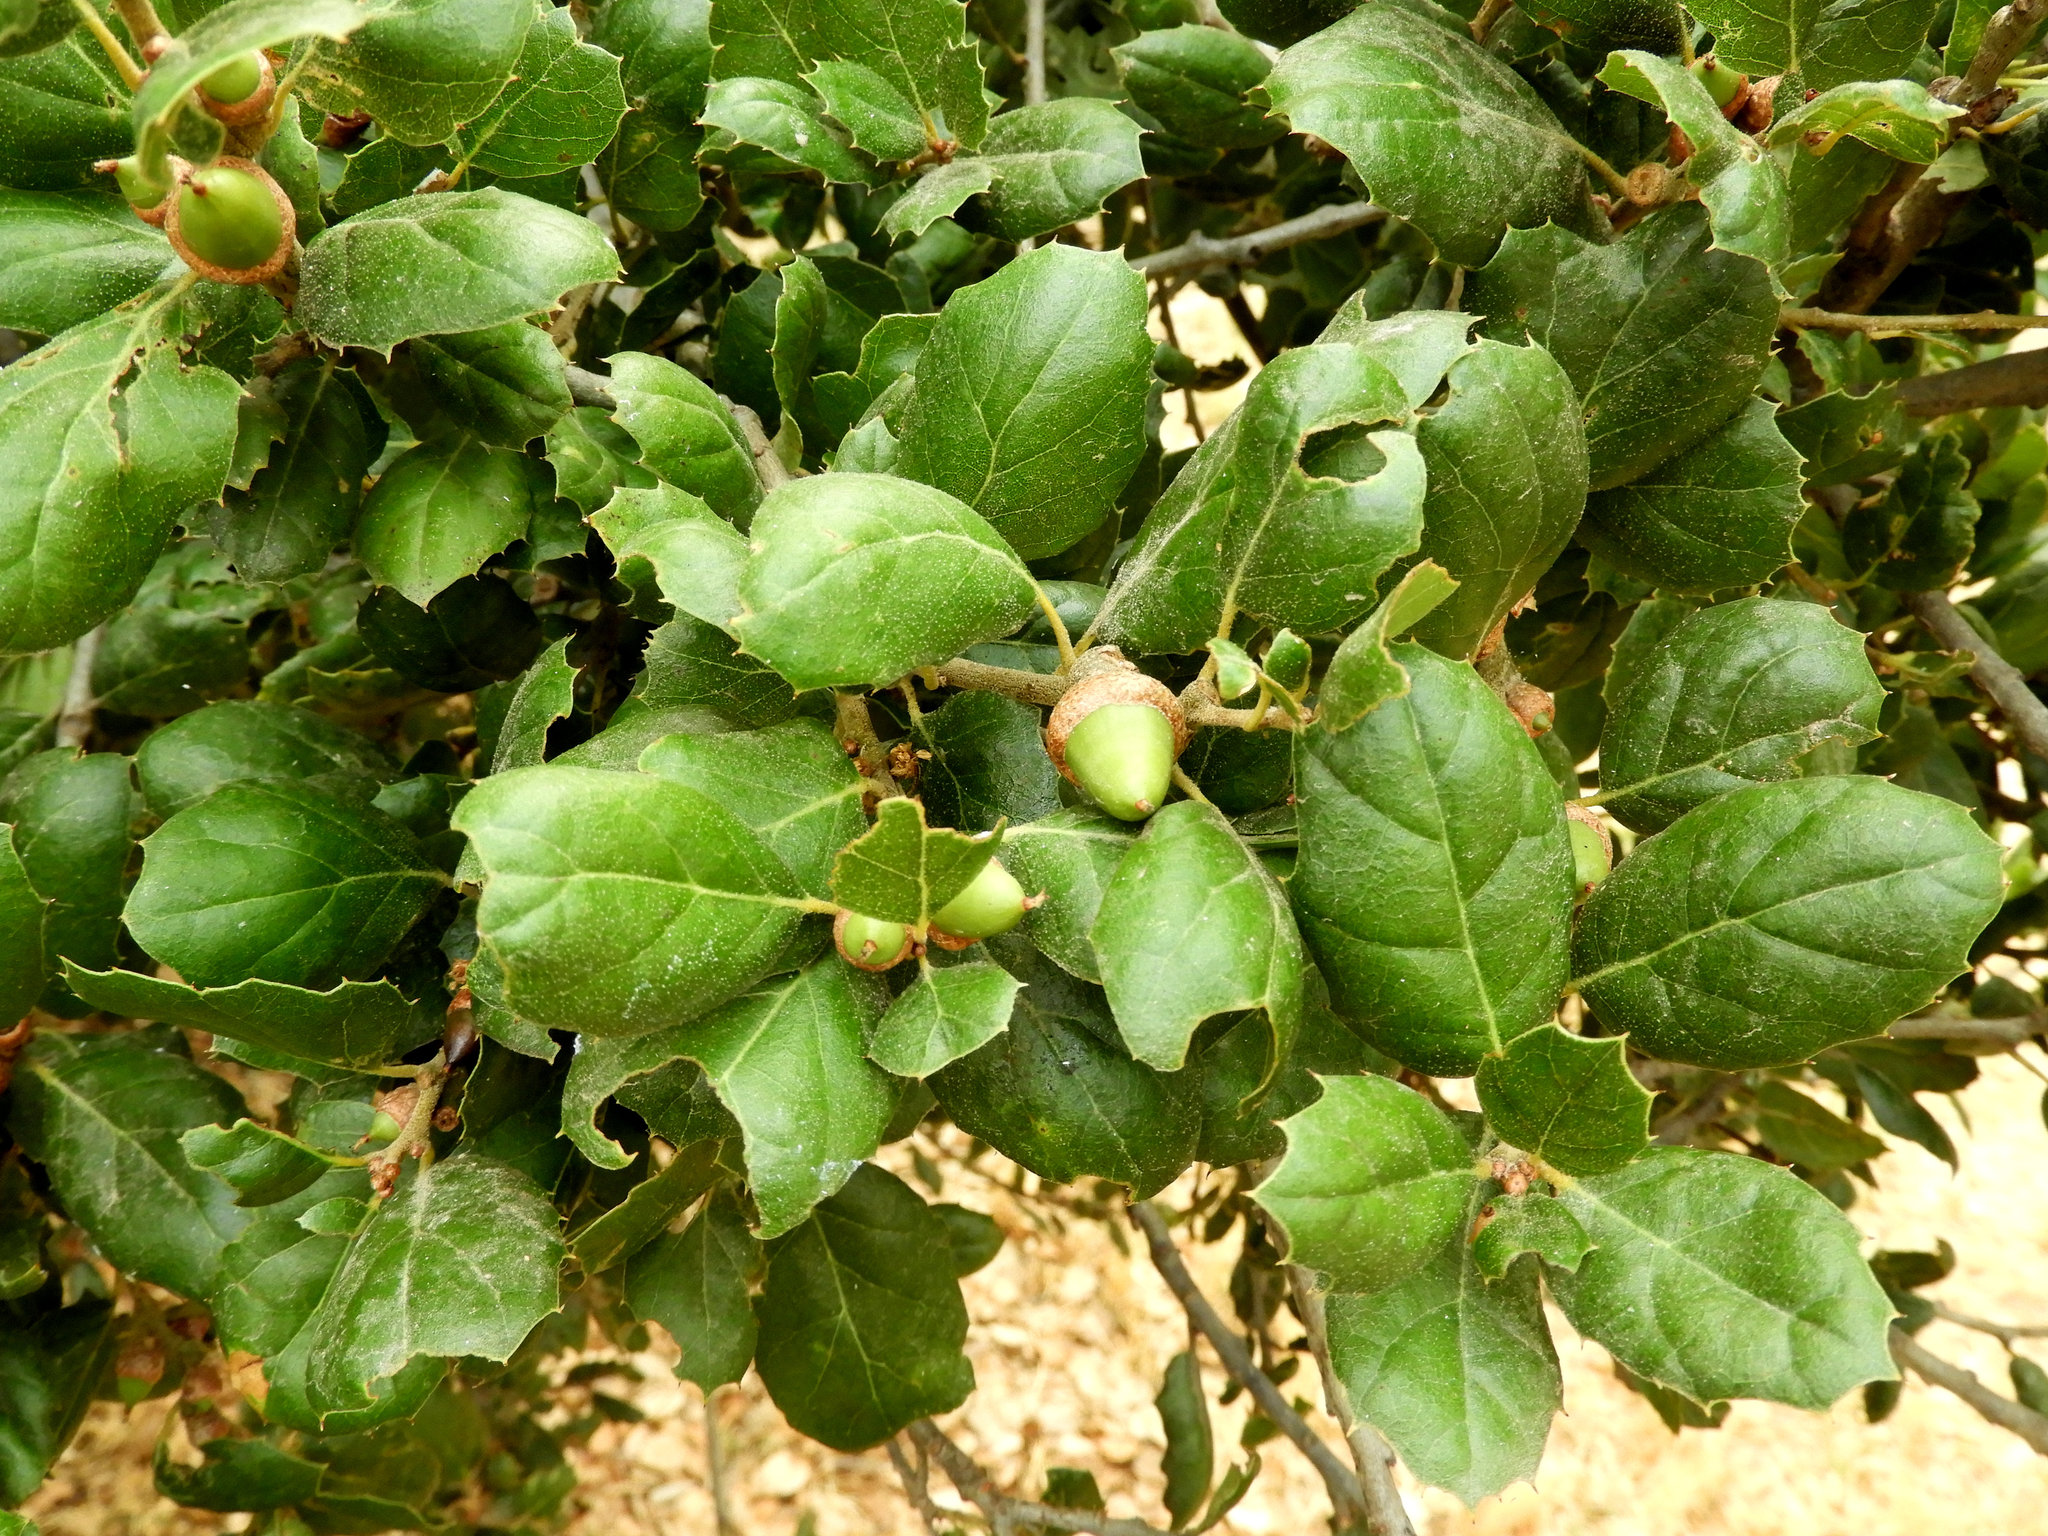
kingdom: Plantae
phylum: Tracheophyta
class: Magnoliopsida
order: Fagales
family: Fagaceae
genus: Quercus
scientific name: Quercus agrifolia
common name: California live oak
